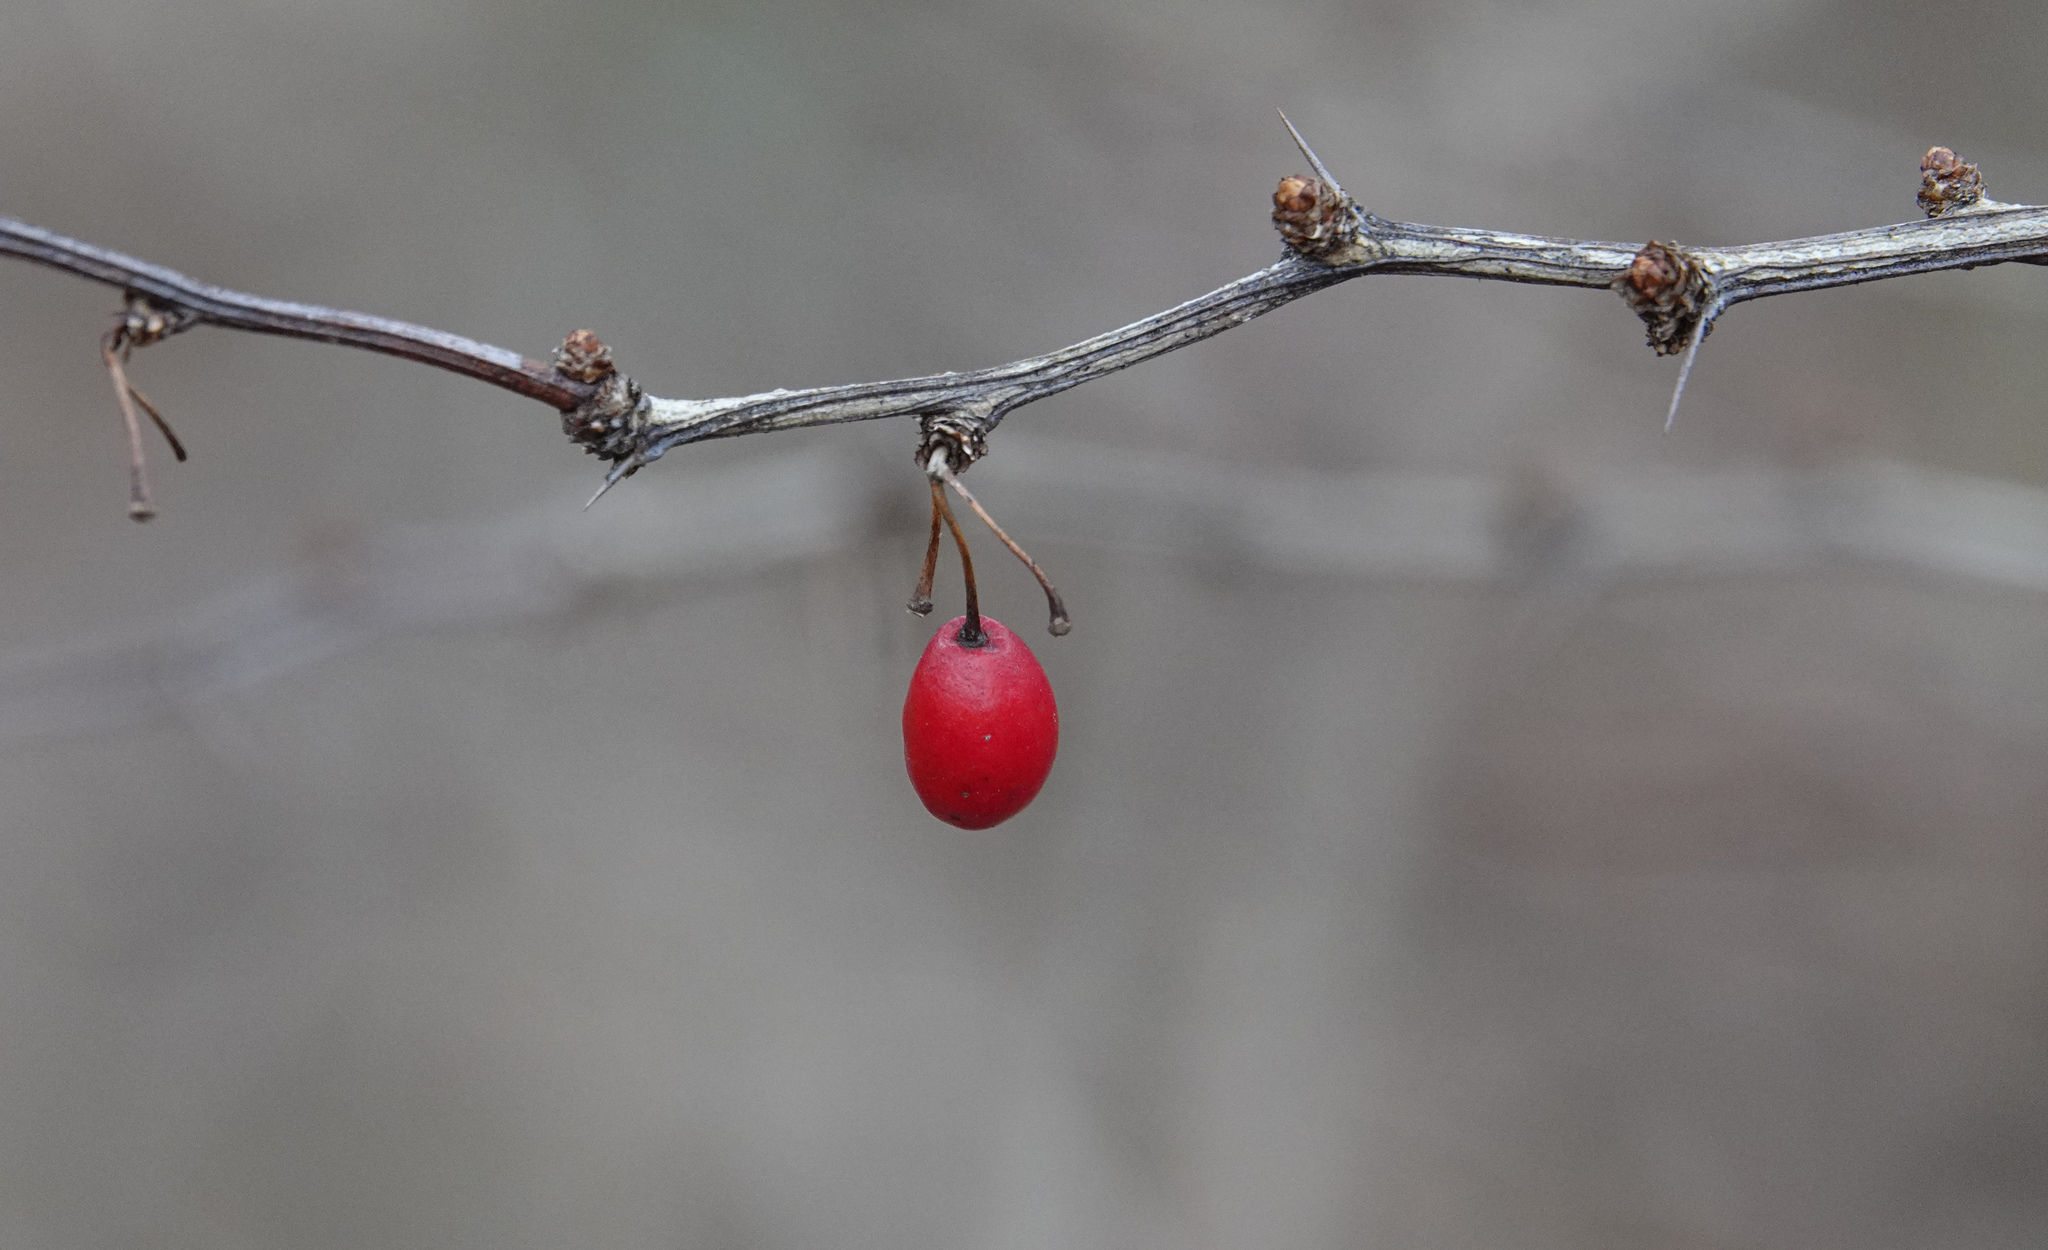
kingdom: Plantae
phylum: Tracheophyta
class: Magnoliopsida
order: Ranunculales
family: Berberidaceae
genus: Berberis
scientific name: Berberis thunbergii
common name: Japanese barberry
